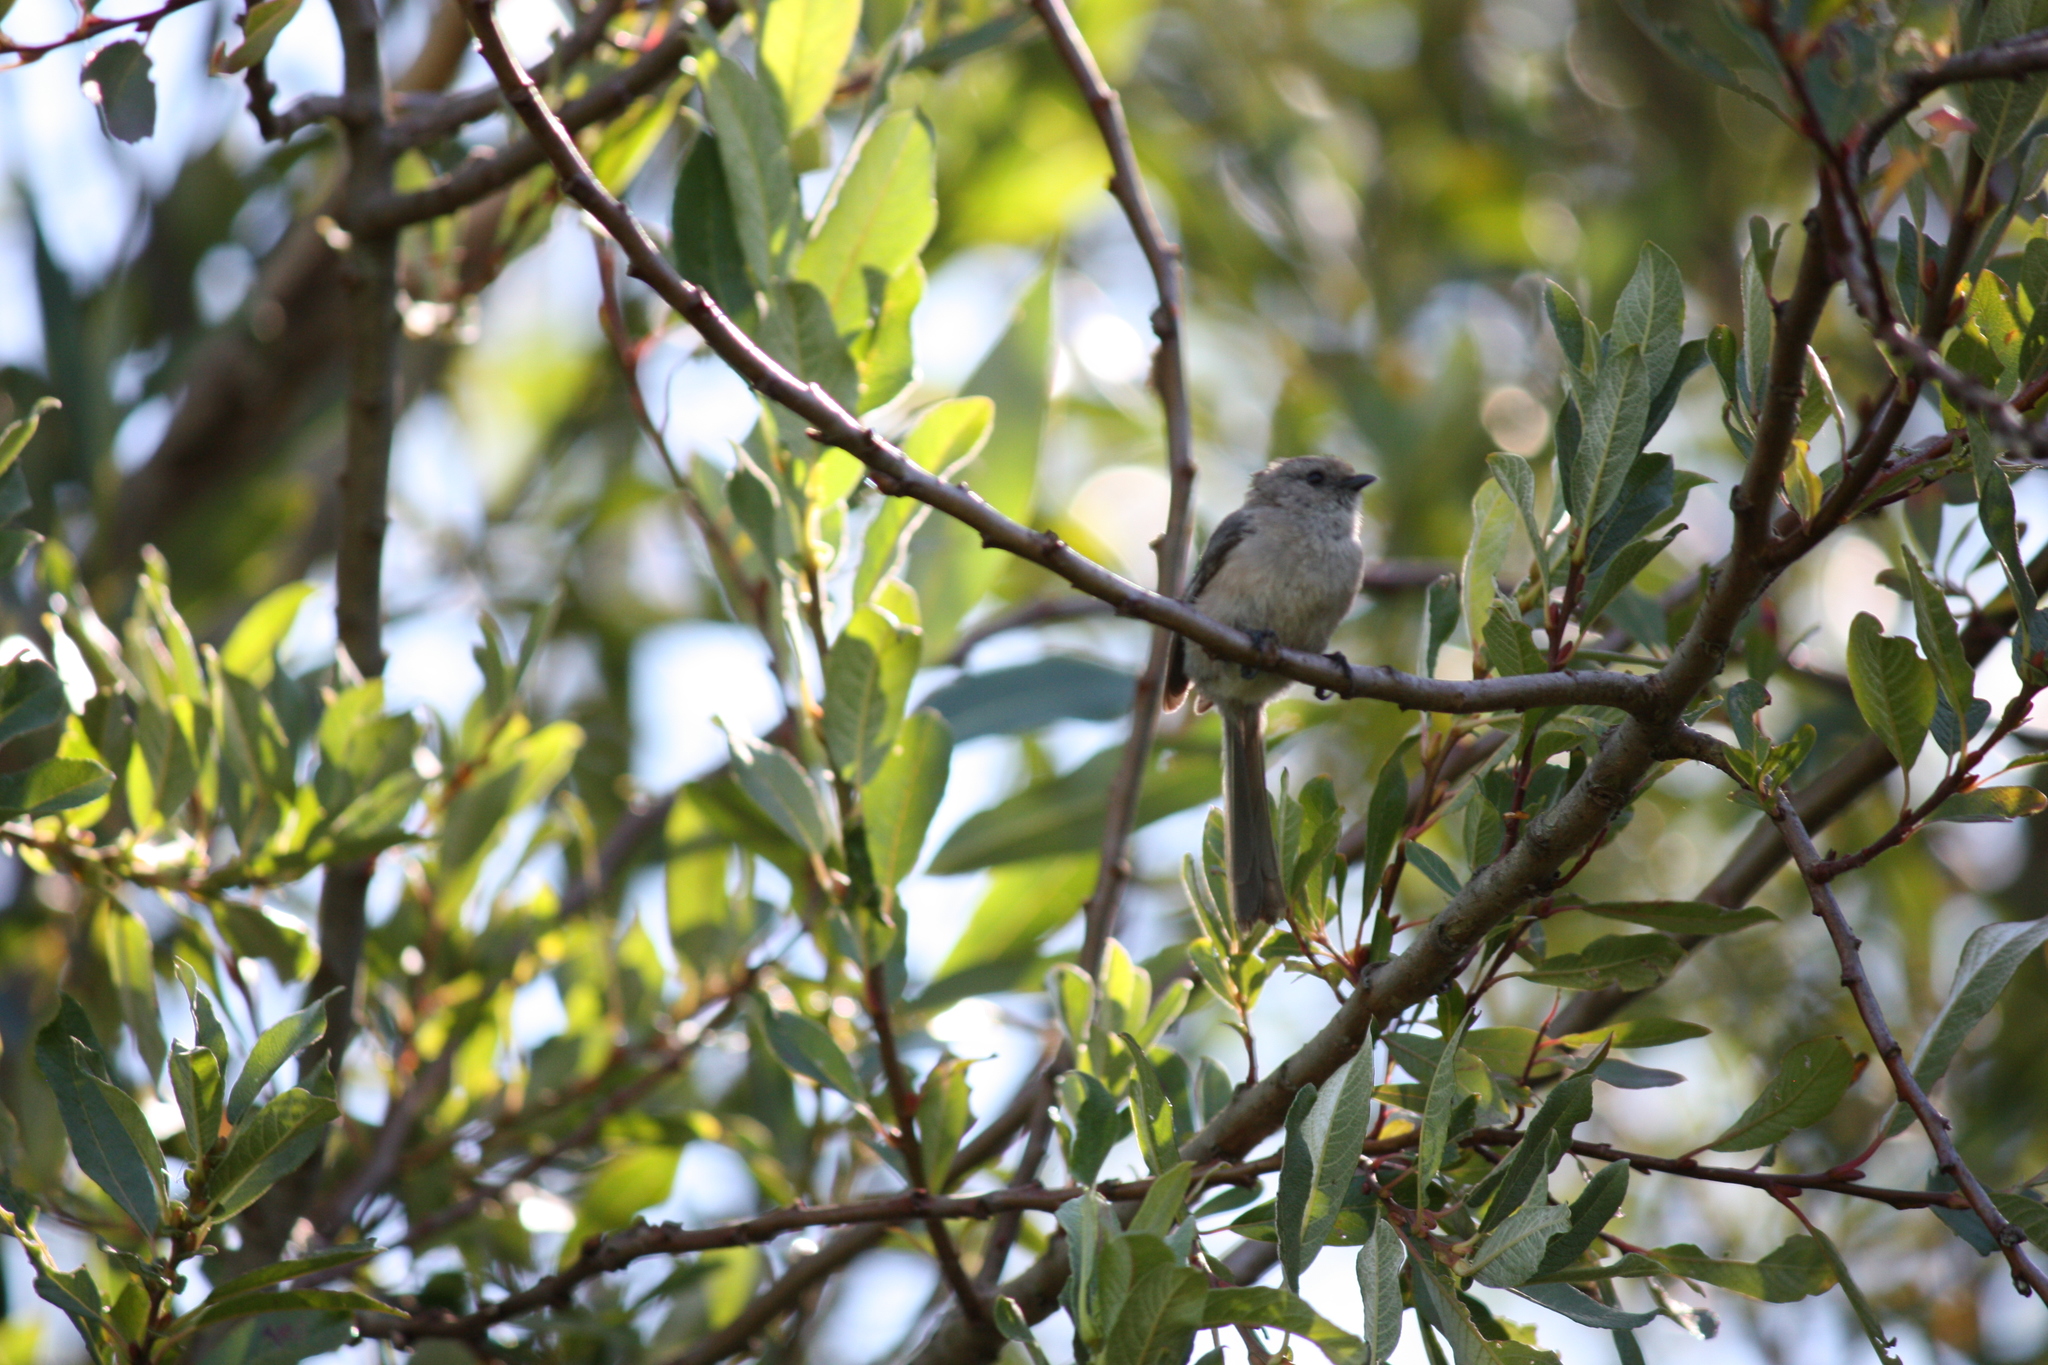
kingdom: Animalia
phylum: Chordata
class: Aves
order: Passeriformes
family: Aegithalidae
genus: Psaltriparus
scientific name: Psaltriparus minimus
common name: American bushtit
